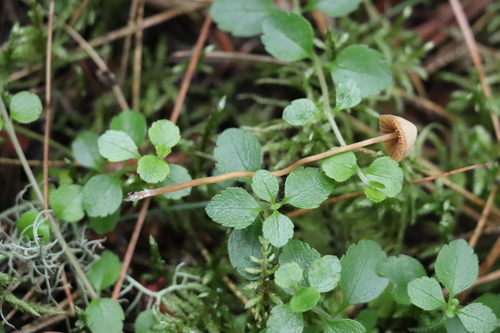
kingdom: Fungi
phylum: Basidiomycota
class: Agaricomycetes
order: Agaricales
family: Hymenogastraceae
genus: Galerina
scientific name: Galerina vittiformis
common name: Hairy leg bell
